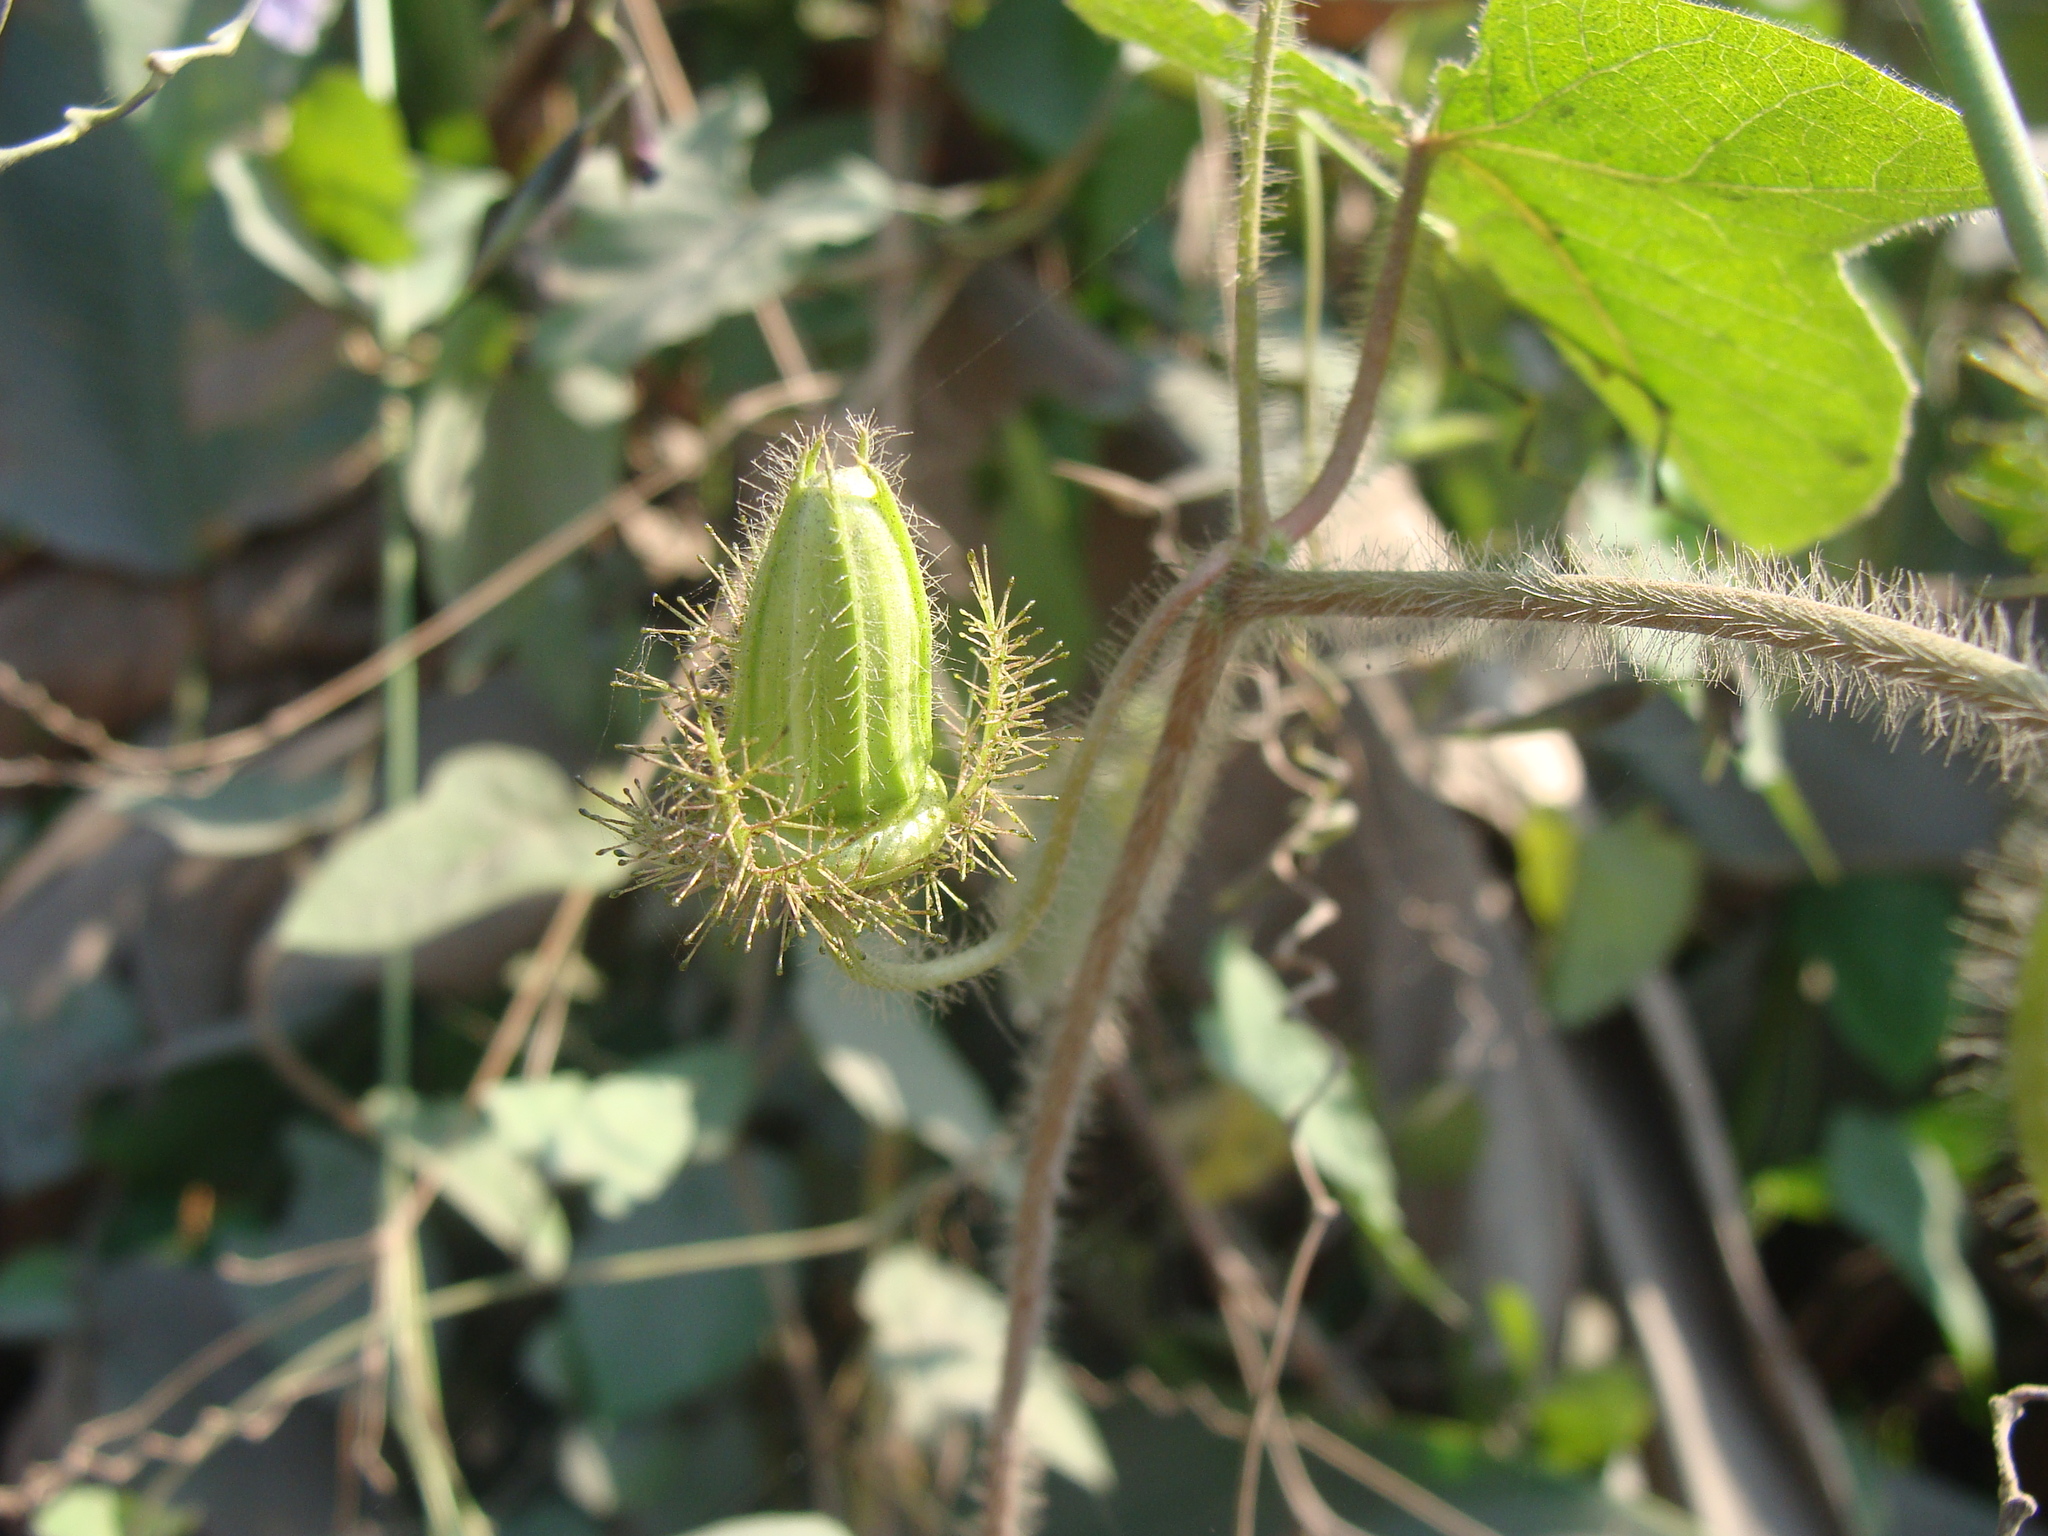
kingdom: Plantae
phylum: Tracheophyta
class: Magnoliopsida
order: Malpighiales
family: Passifloraceae
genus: Passiflora
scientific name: Passiflora foetida
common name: Fetid passionflower
